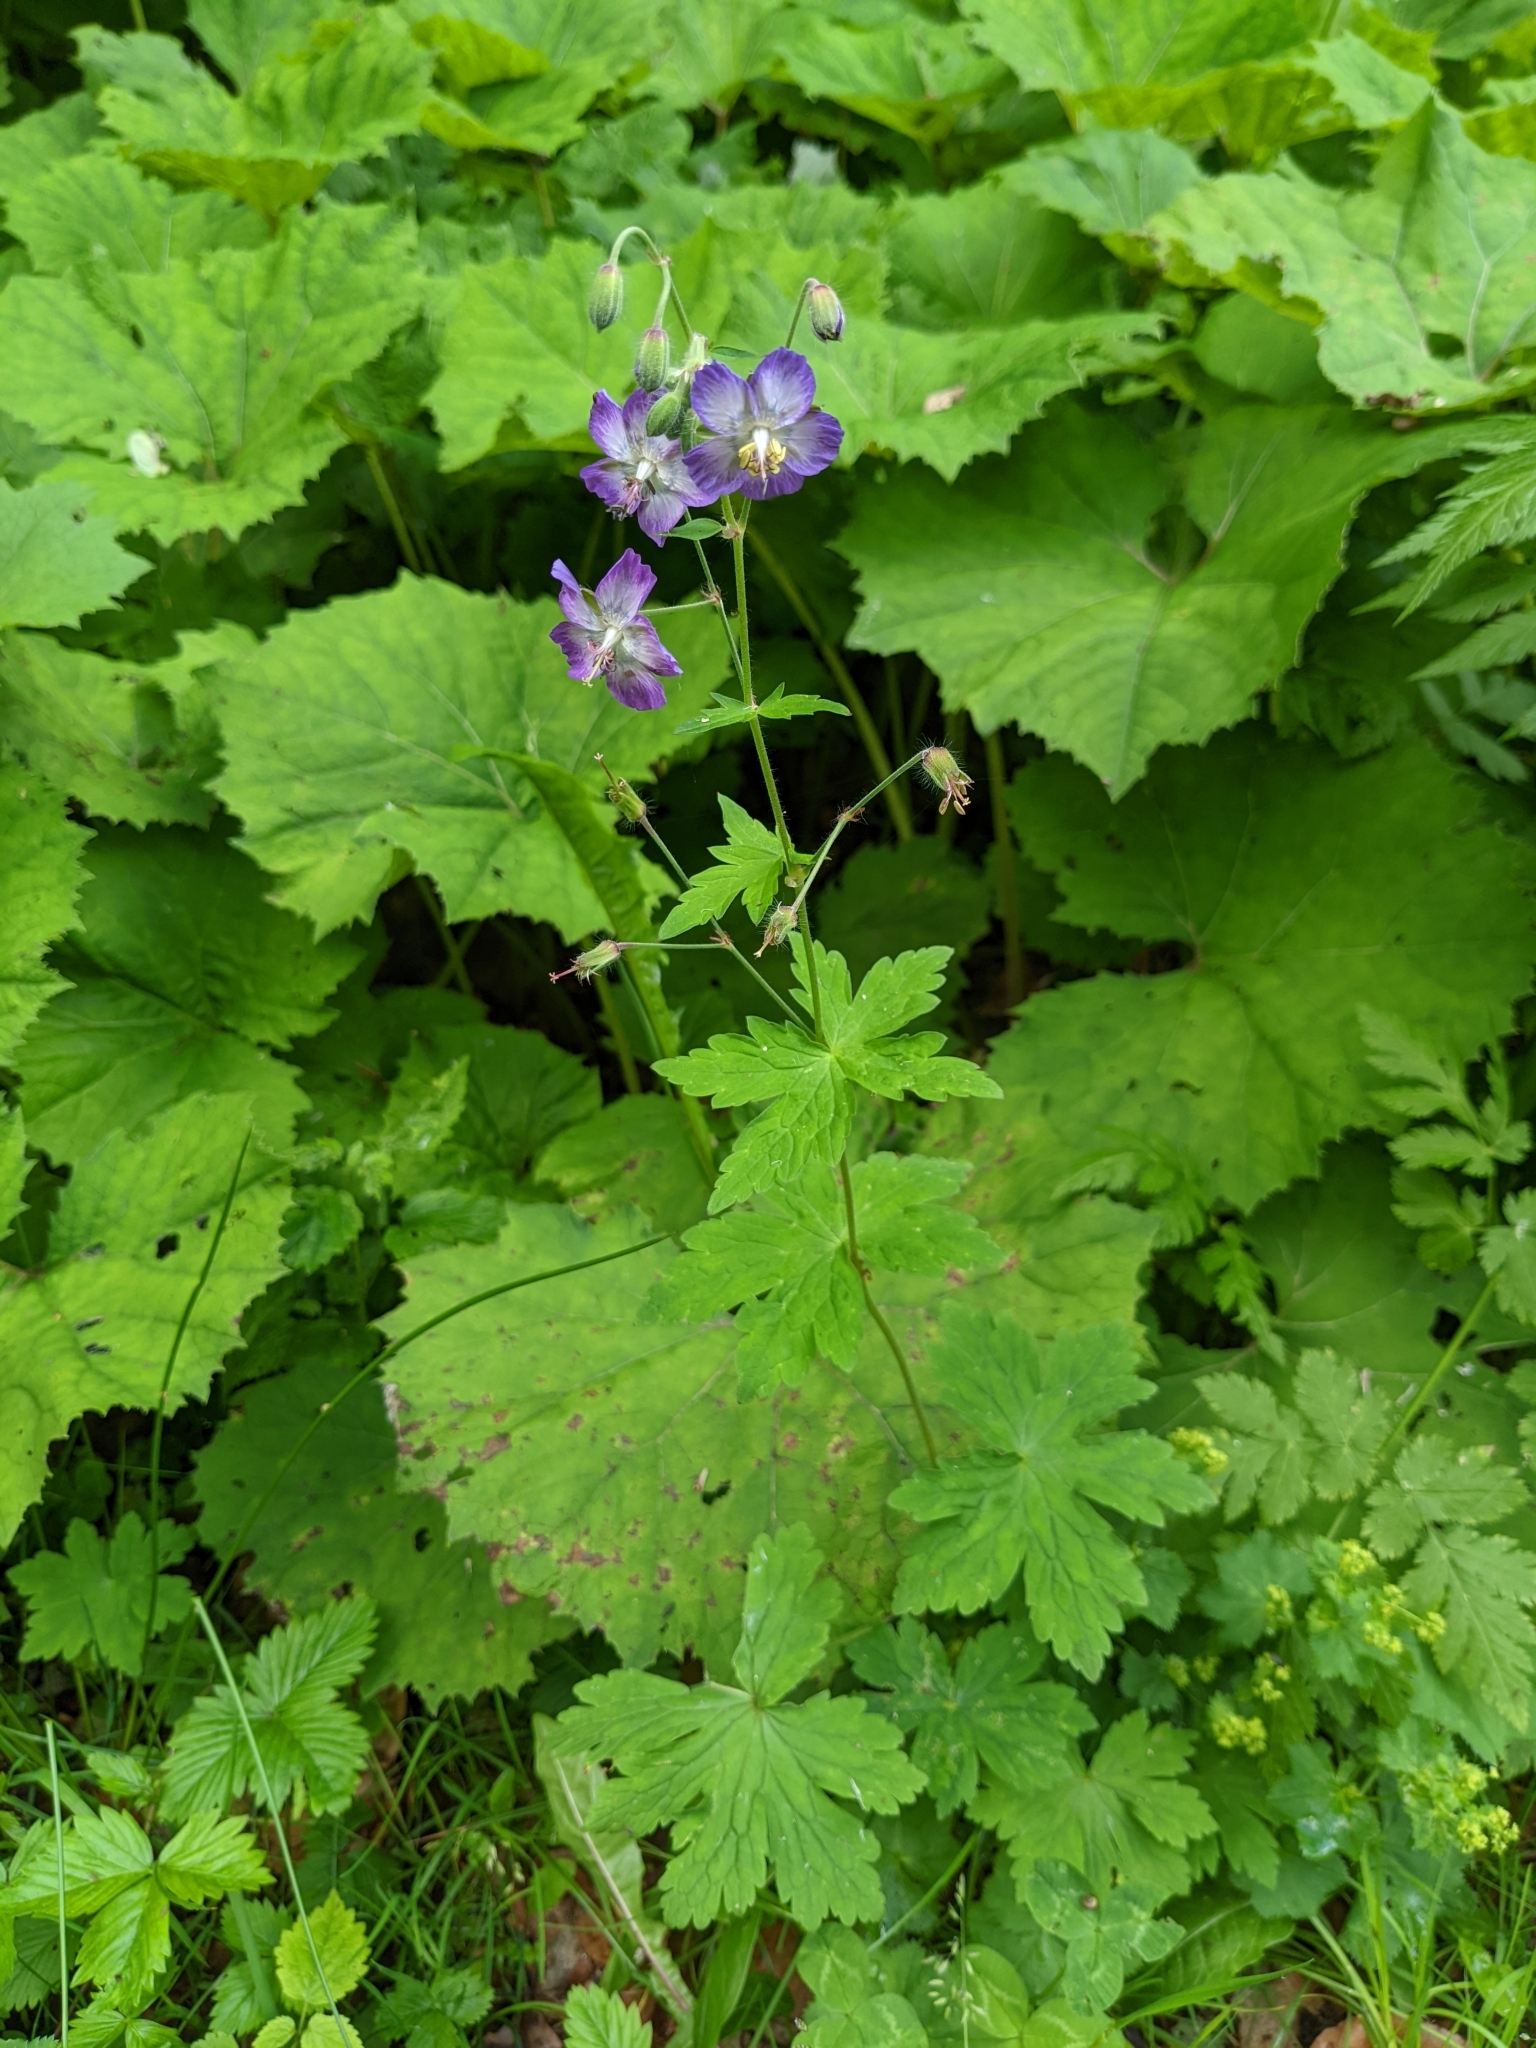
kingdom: Plantae
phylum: Tracheophyta
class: Magnoliopsida
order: Geraniales
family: Geraniaceae
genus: Geranium
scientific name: Geranium phaeum
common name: Dusky crane's-bill
